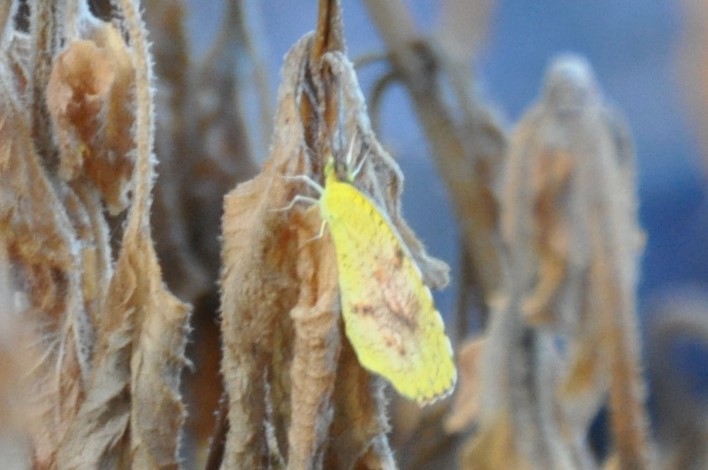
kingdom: Animalia
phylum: Arthropoda
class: Insecta
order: Lepidoptera
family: Pieridae
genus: Abaeis
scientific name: Abaeis nicippe
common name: Sleepy orange
